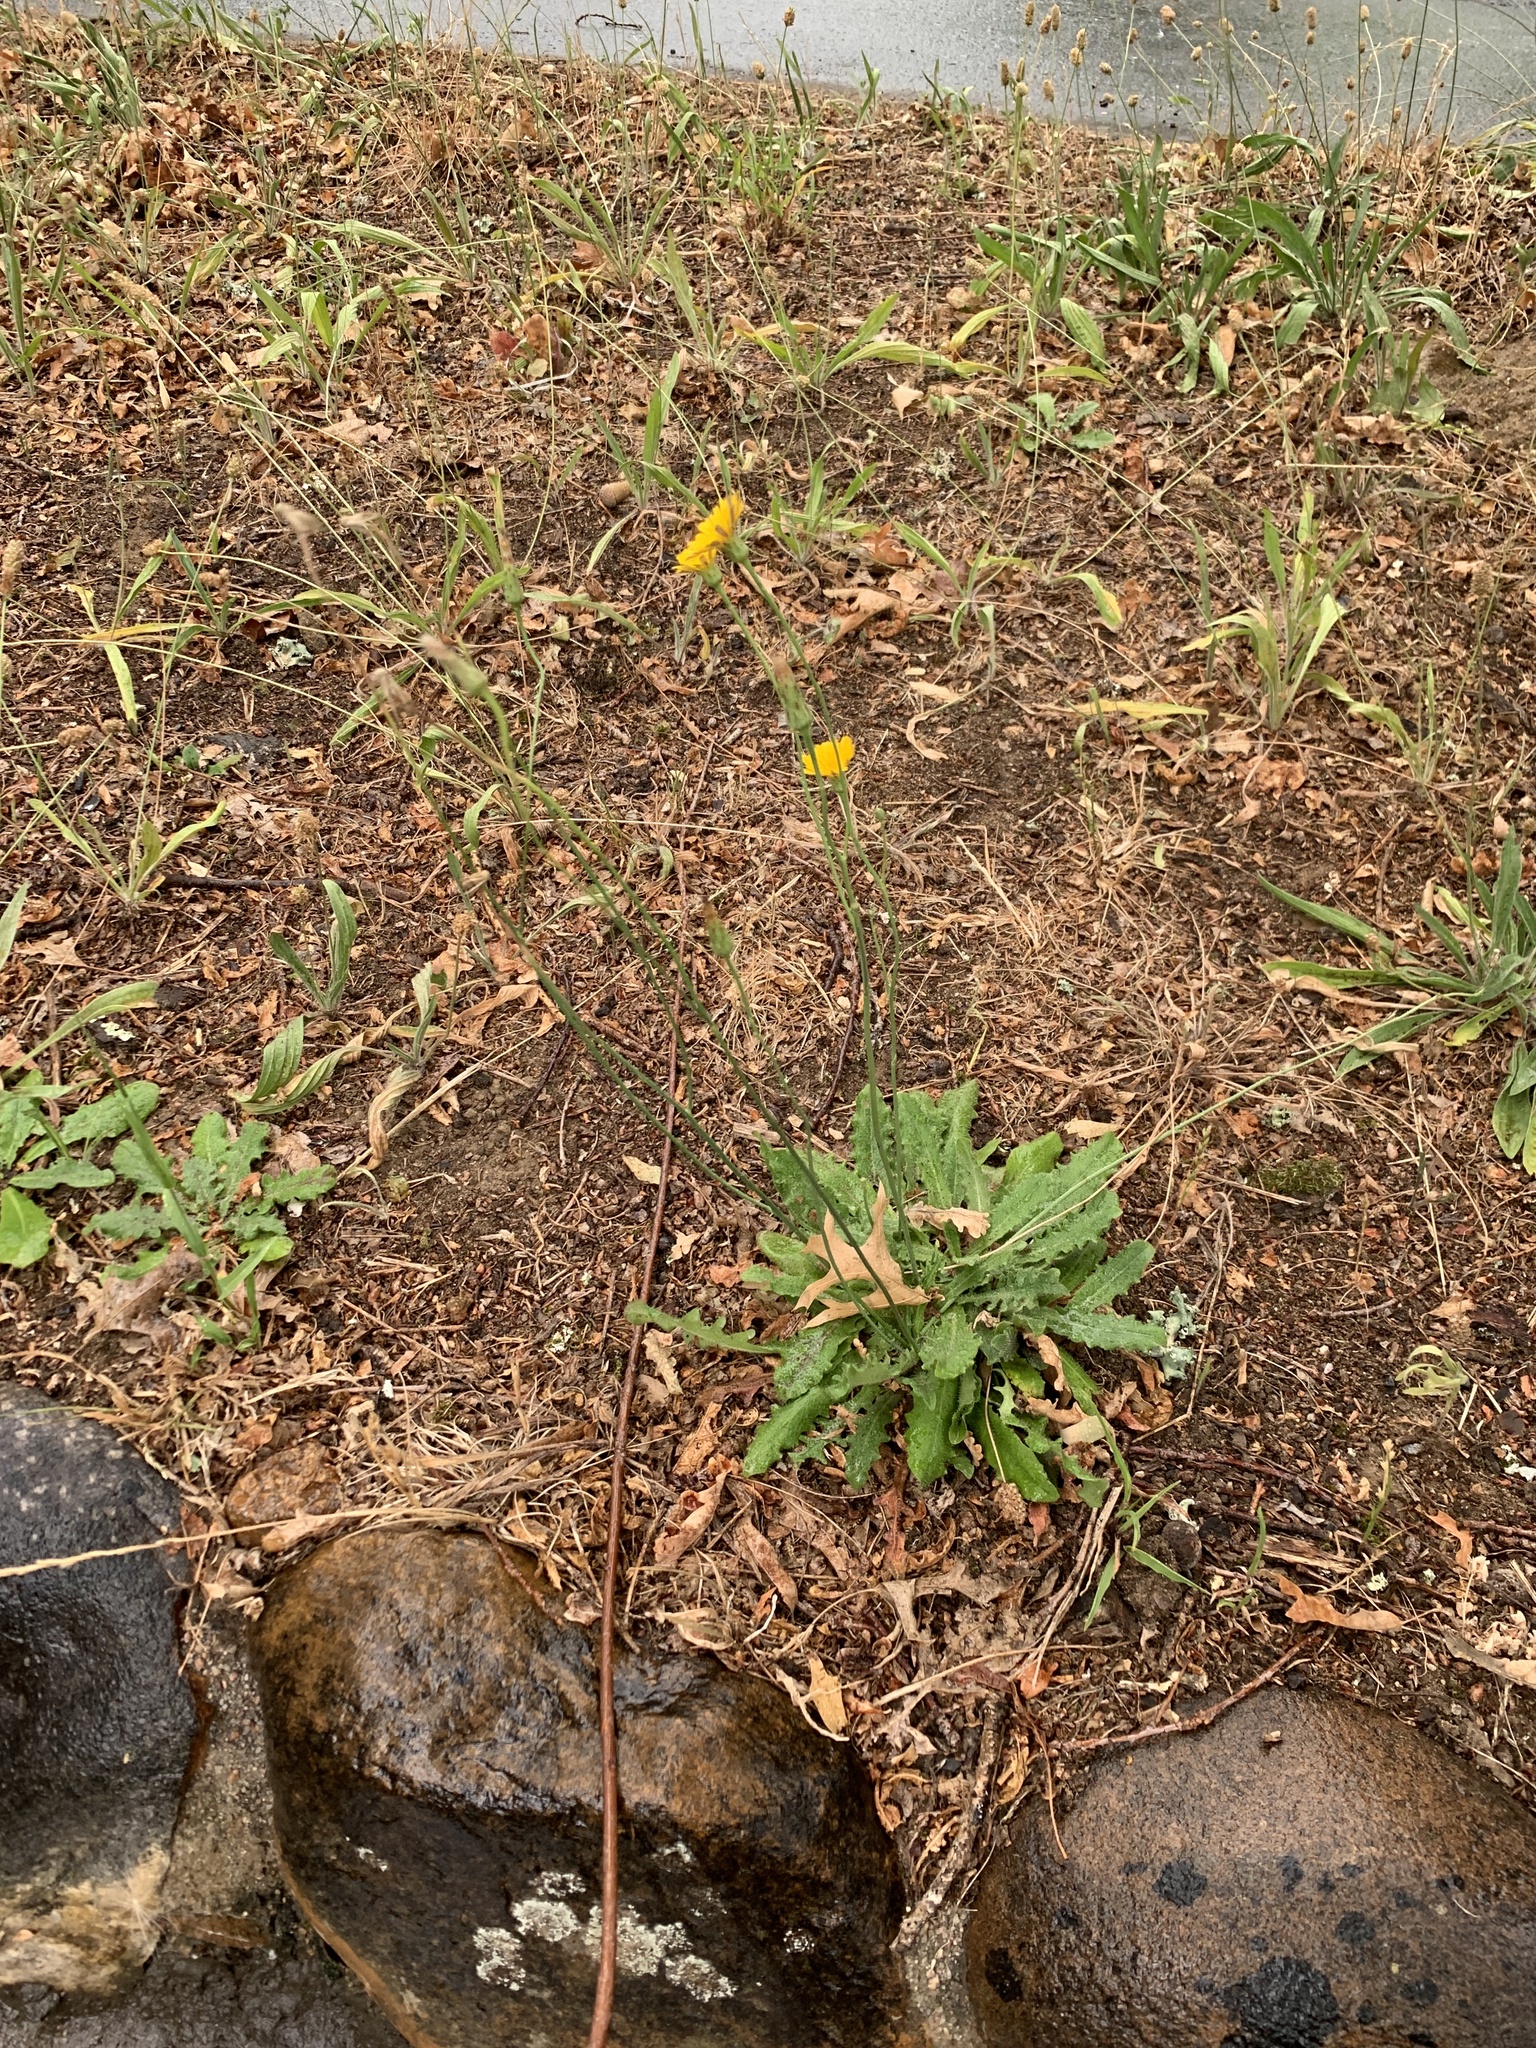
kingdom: Plantae
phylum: Tracheophyta
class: Magnoliopsida
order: Asterales
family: Asteraceae
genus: Hypochaeris
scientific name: Hypochaeris radicata
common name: Flatweed
